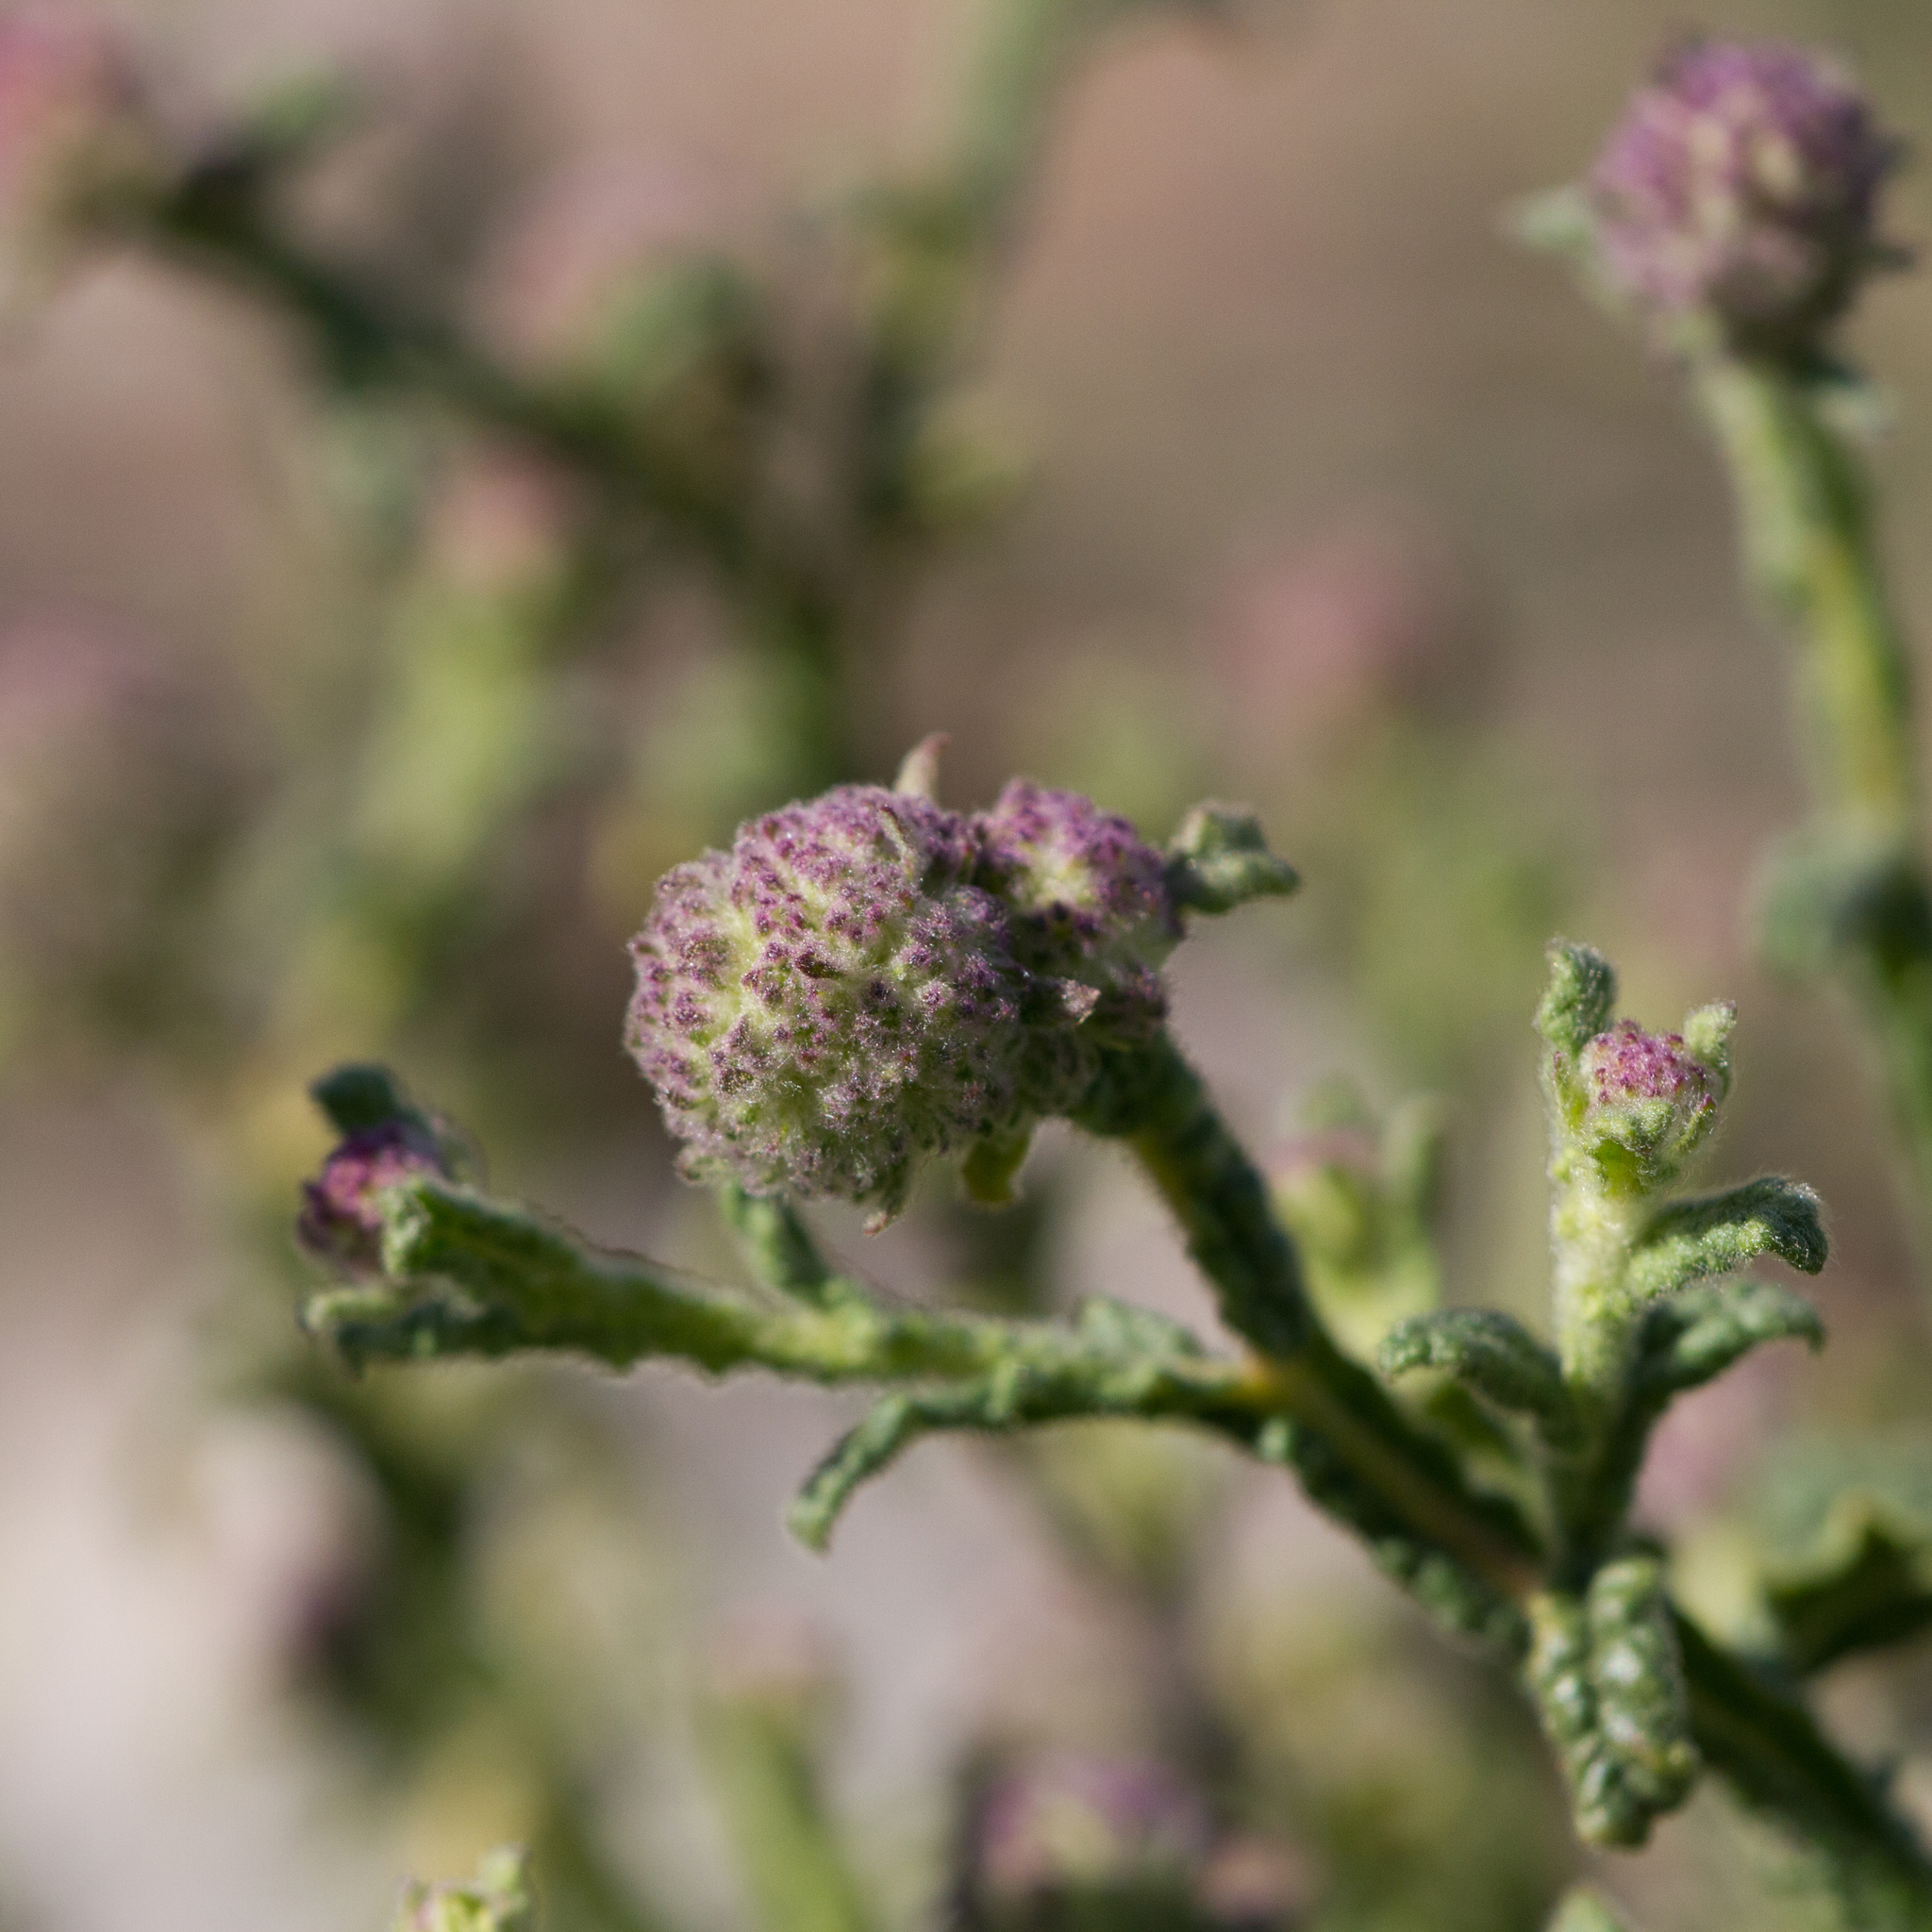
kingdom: Plantae
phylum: Tracheophyta
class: Magnoliopsida
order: Asterales
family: Asteraceae
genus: Pterocaulon
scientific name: Pterocaulon sphacelatum
